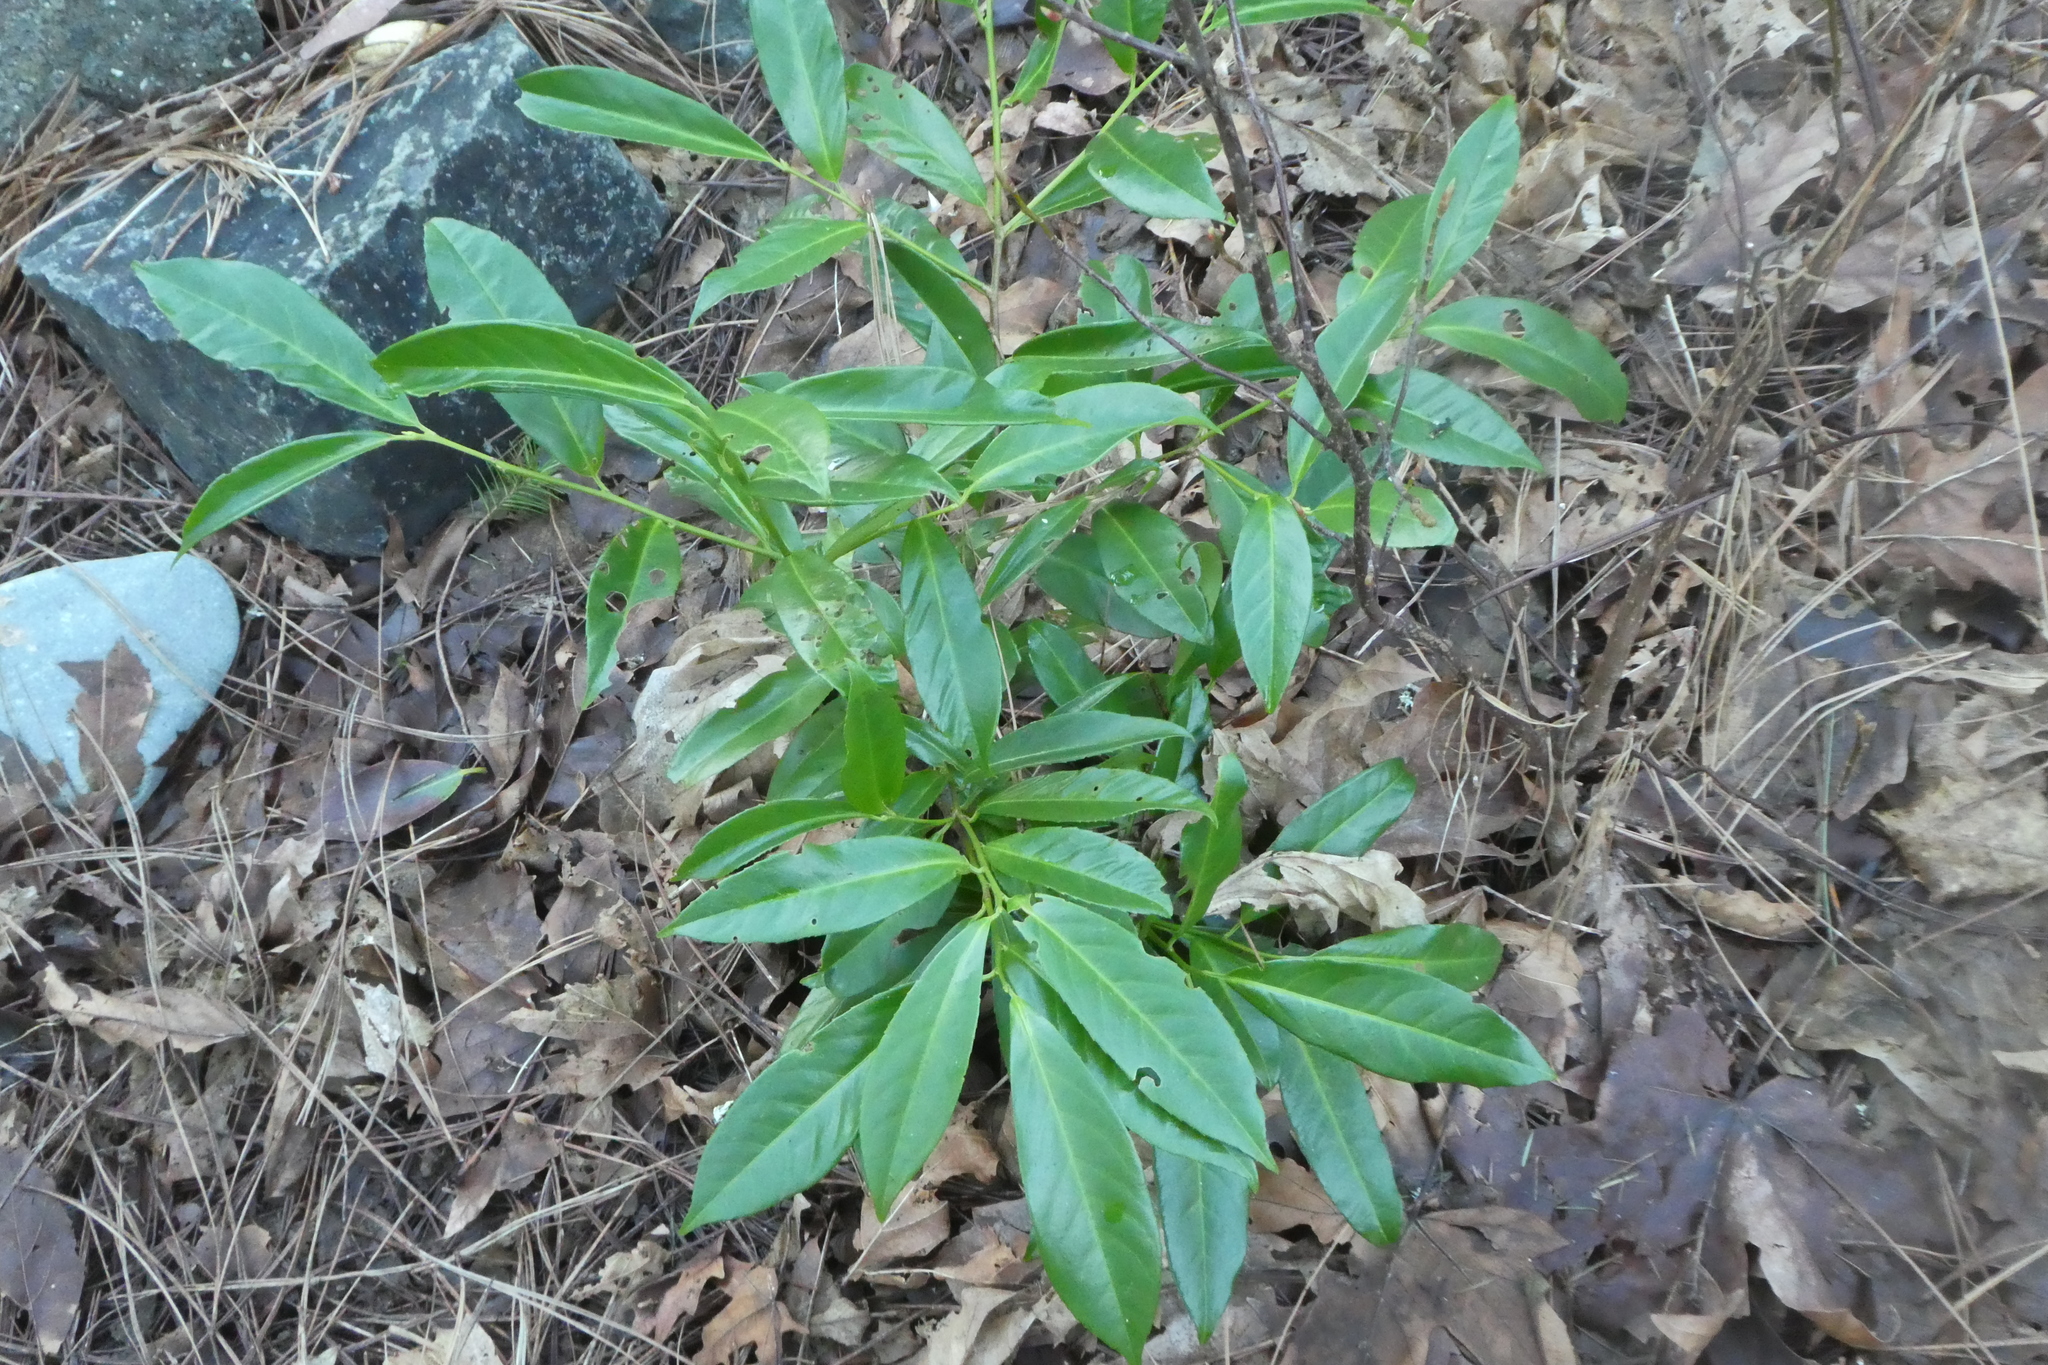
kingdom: Plantae
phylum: Tracheophyta
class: Magnoliopsida
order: Rosales
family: Rosaceae
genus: Prunus
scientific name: Prunus laurocerasus
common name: Cherry laurel
